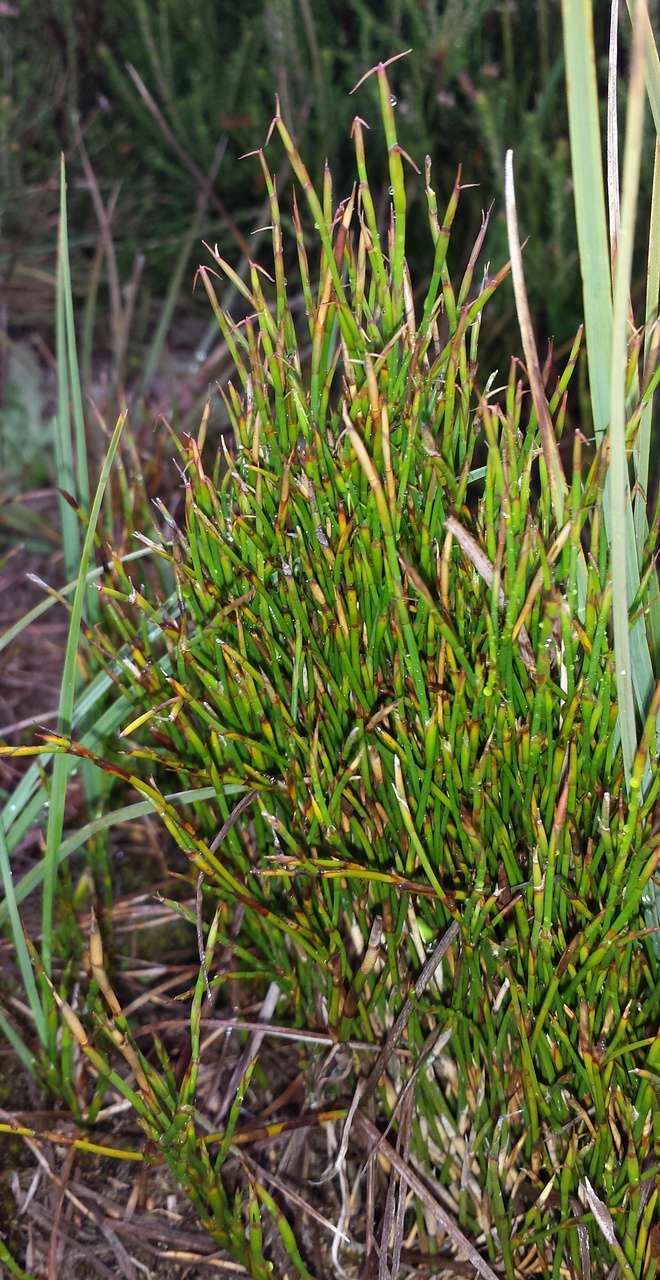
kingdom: Plantae
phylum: Tracheophyta
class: Liliopsida
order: Poales
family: Restionaceae
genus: Empodisma
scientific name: Empodisma minus
